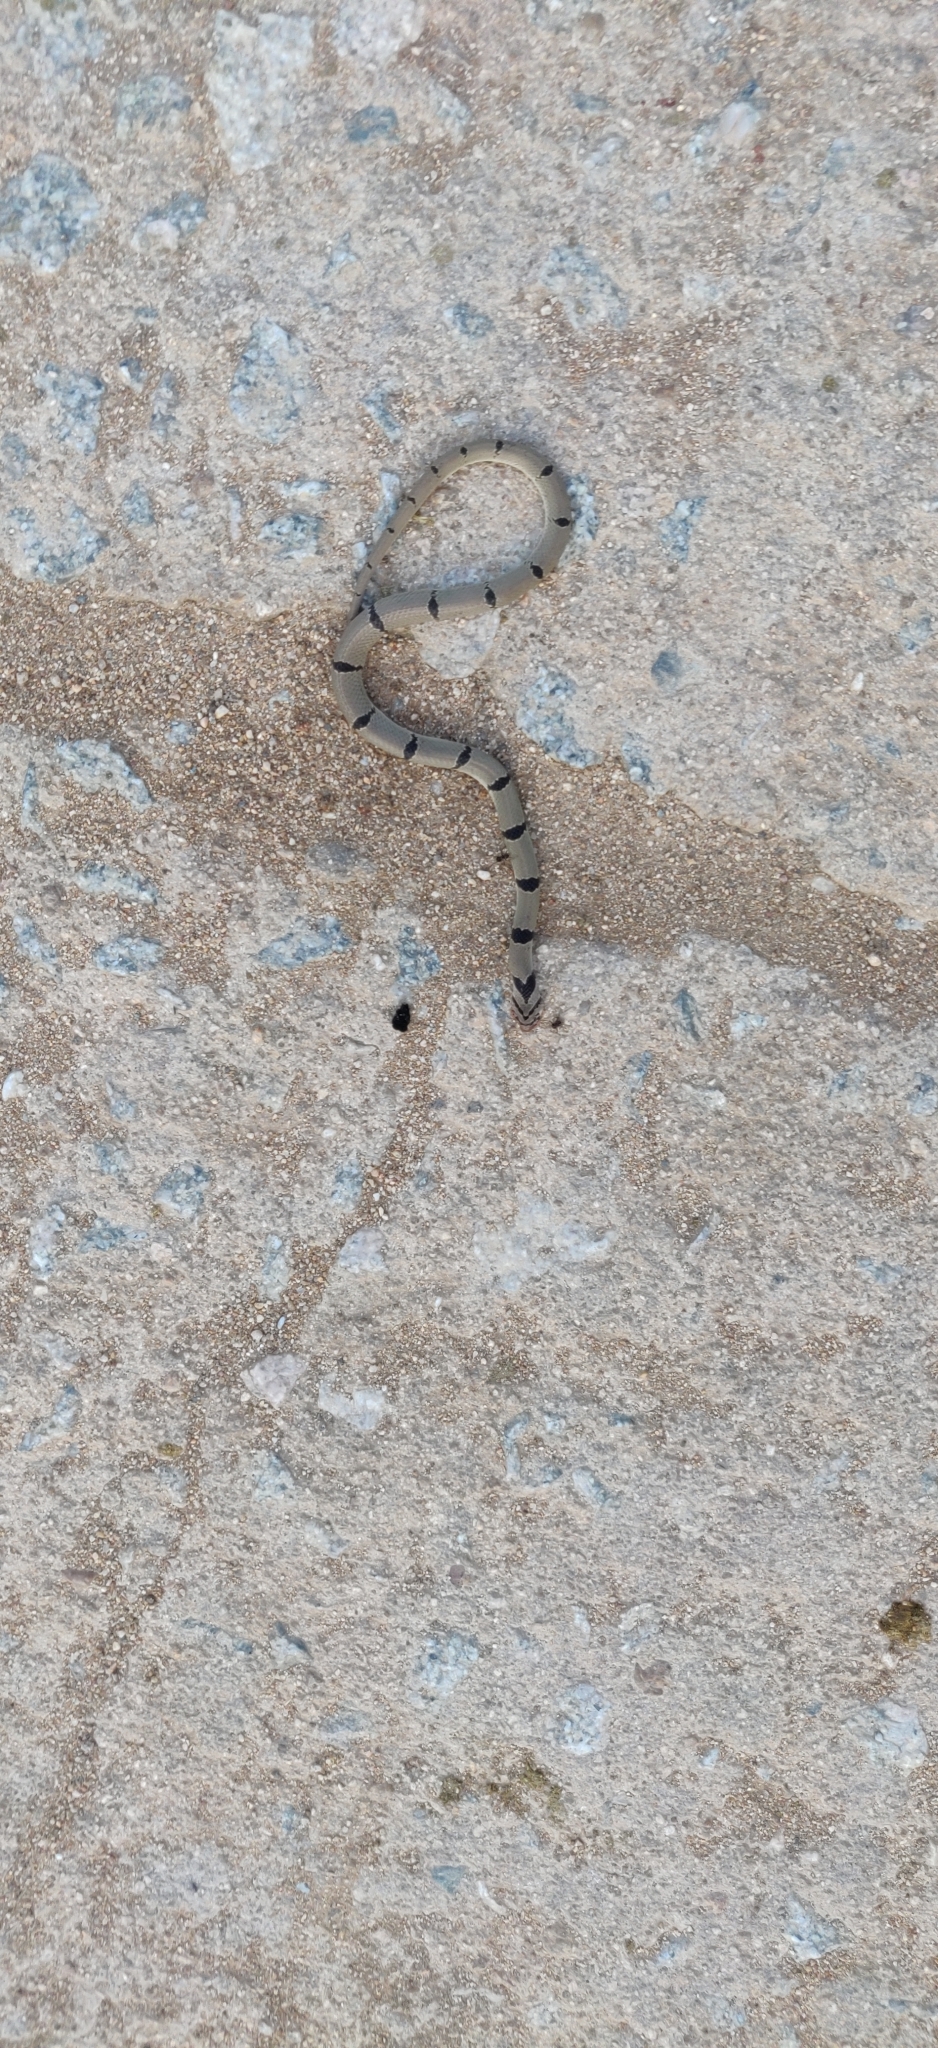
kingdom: Animalia
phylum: Chordata
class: Squamata
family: Colubridae
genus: Oligodon
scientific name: Oligodon arnensis
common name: Banded kukri
